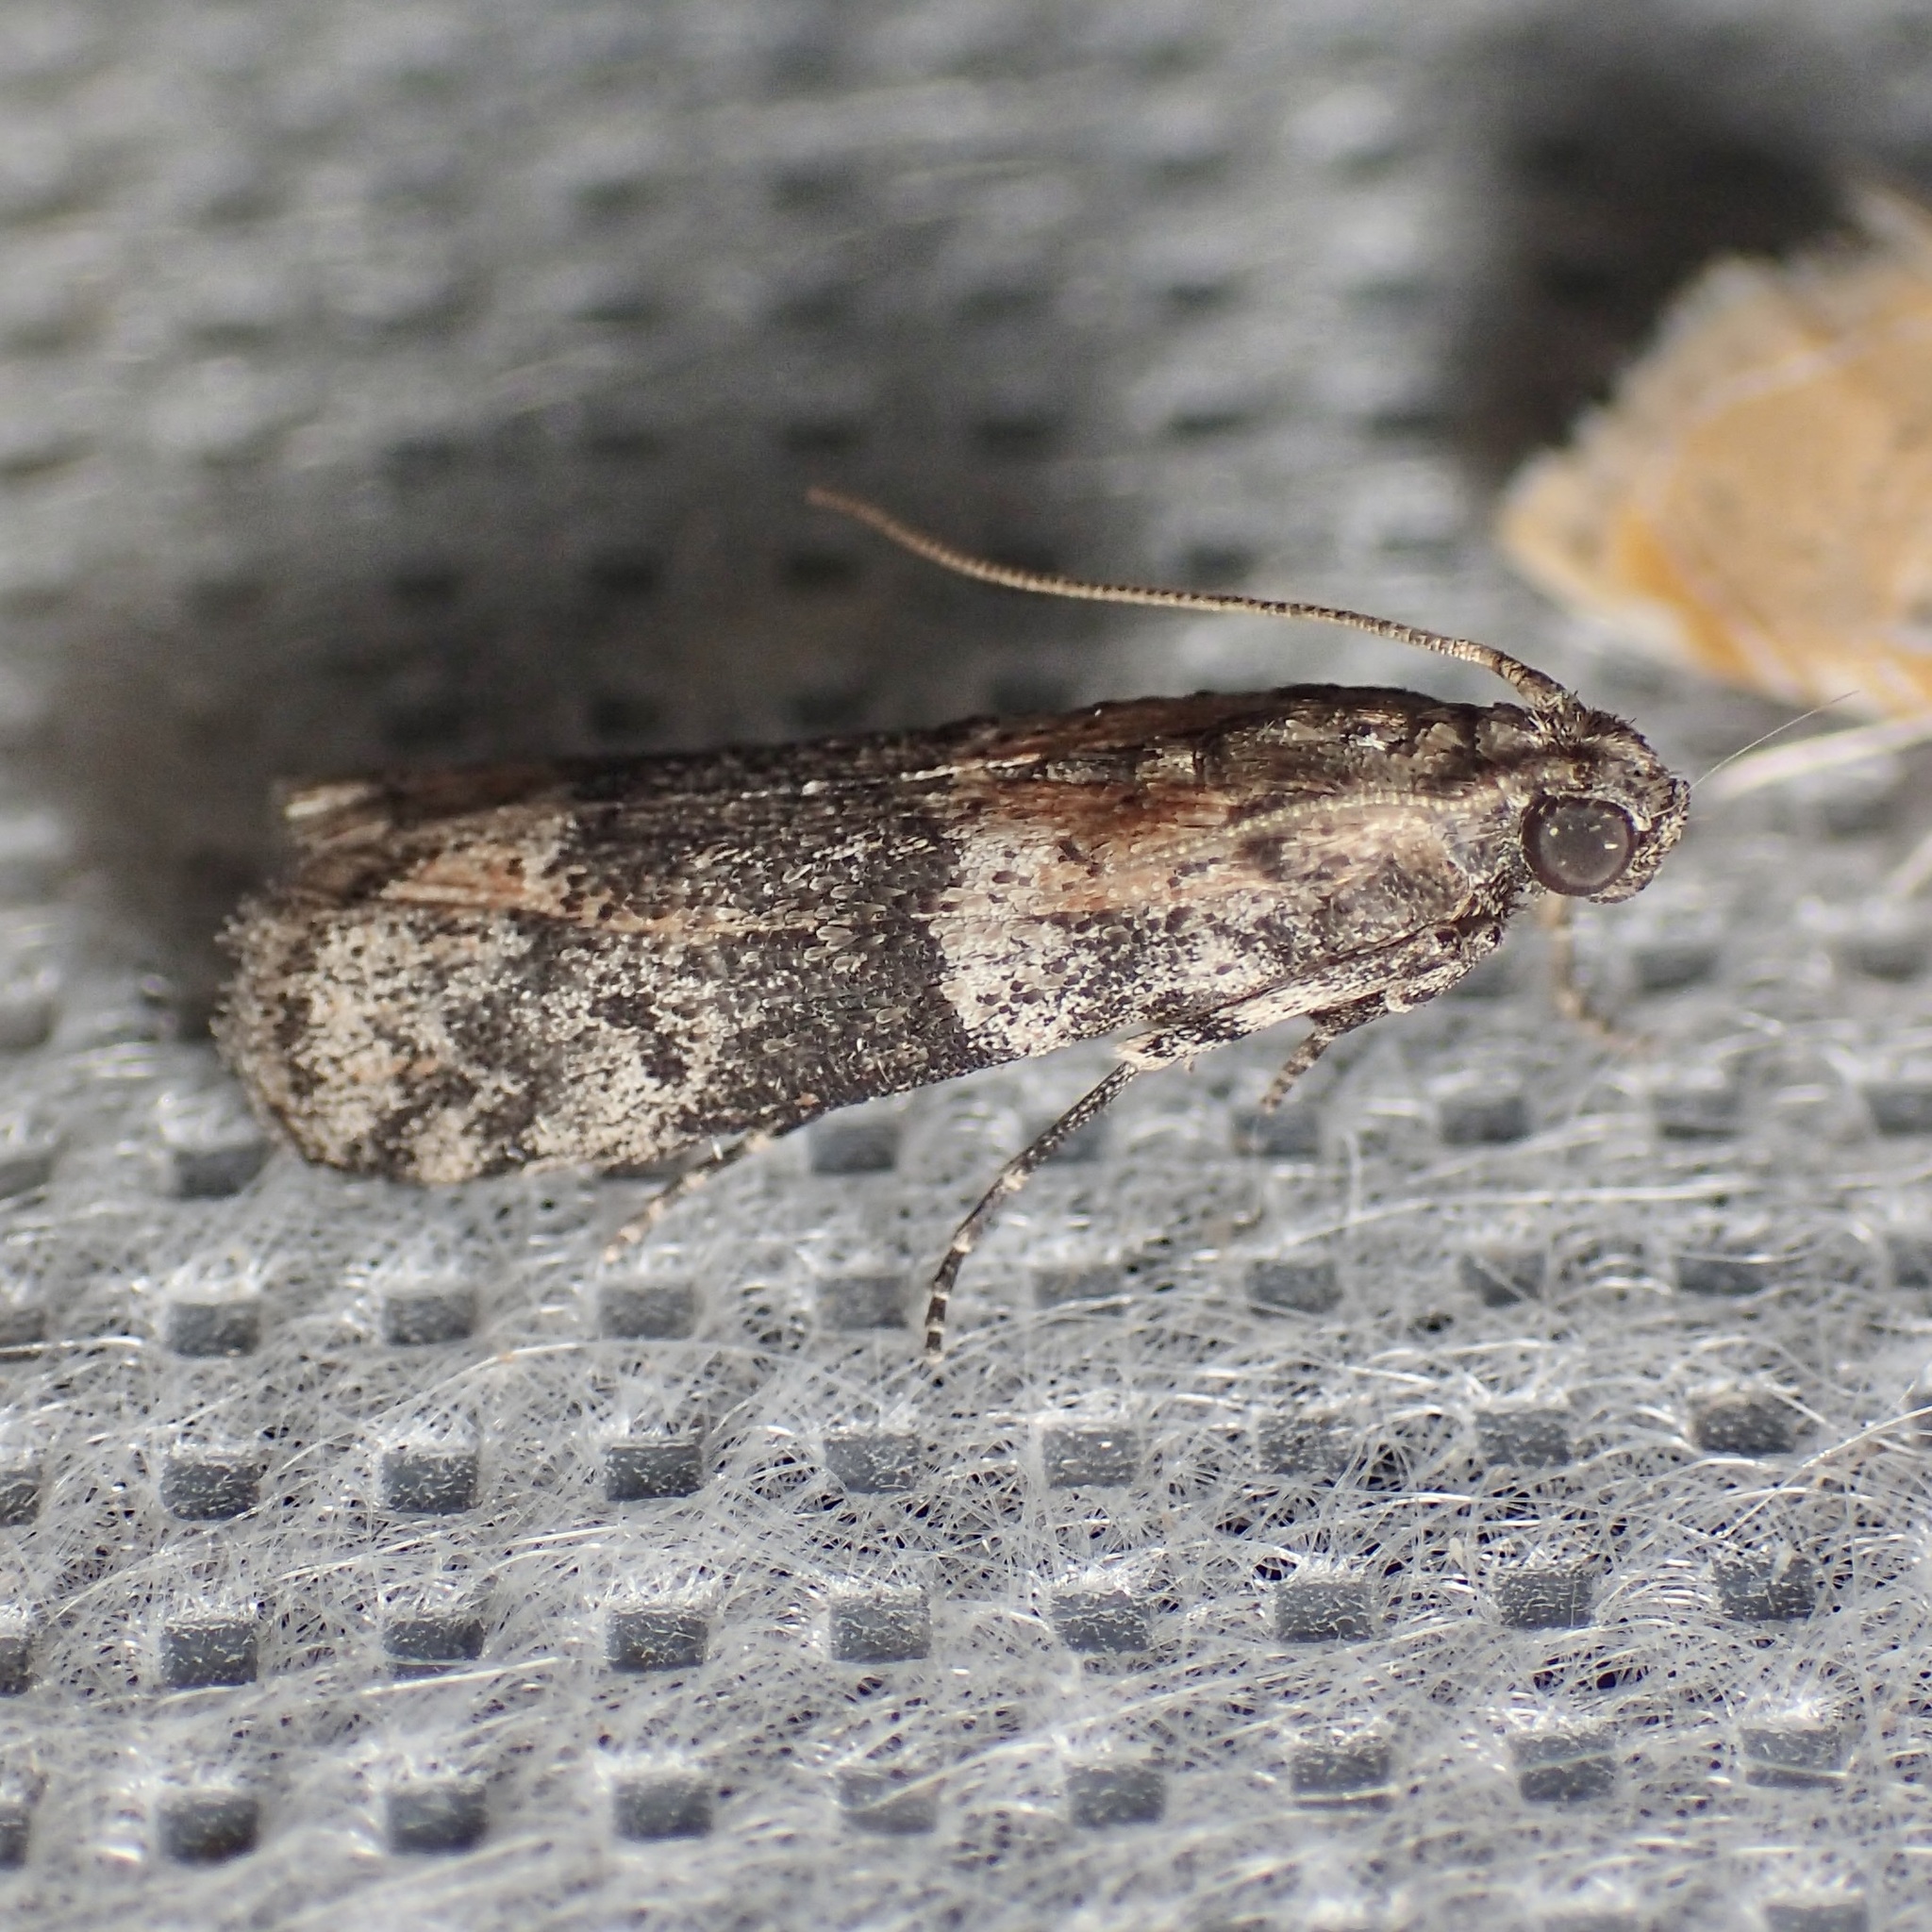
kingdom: Animalia
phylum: Arthropoda
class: Insecta
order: Lepidoptera
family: Pyralidae
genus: Ephestiodes
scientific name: Ephestiodes gilvescentella
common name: Moth
